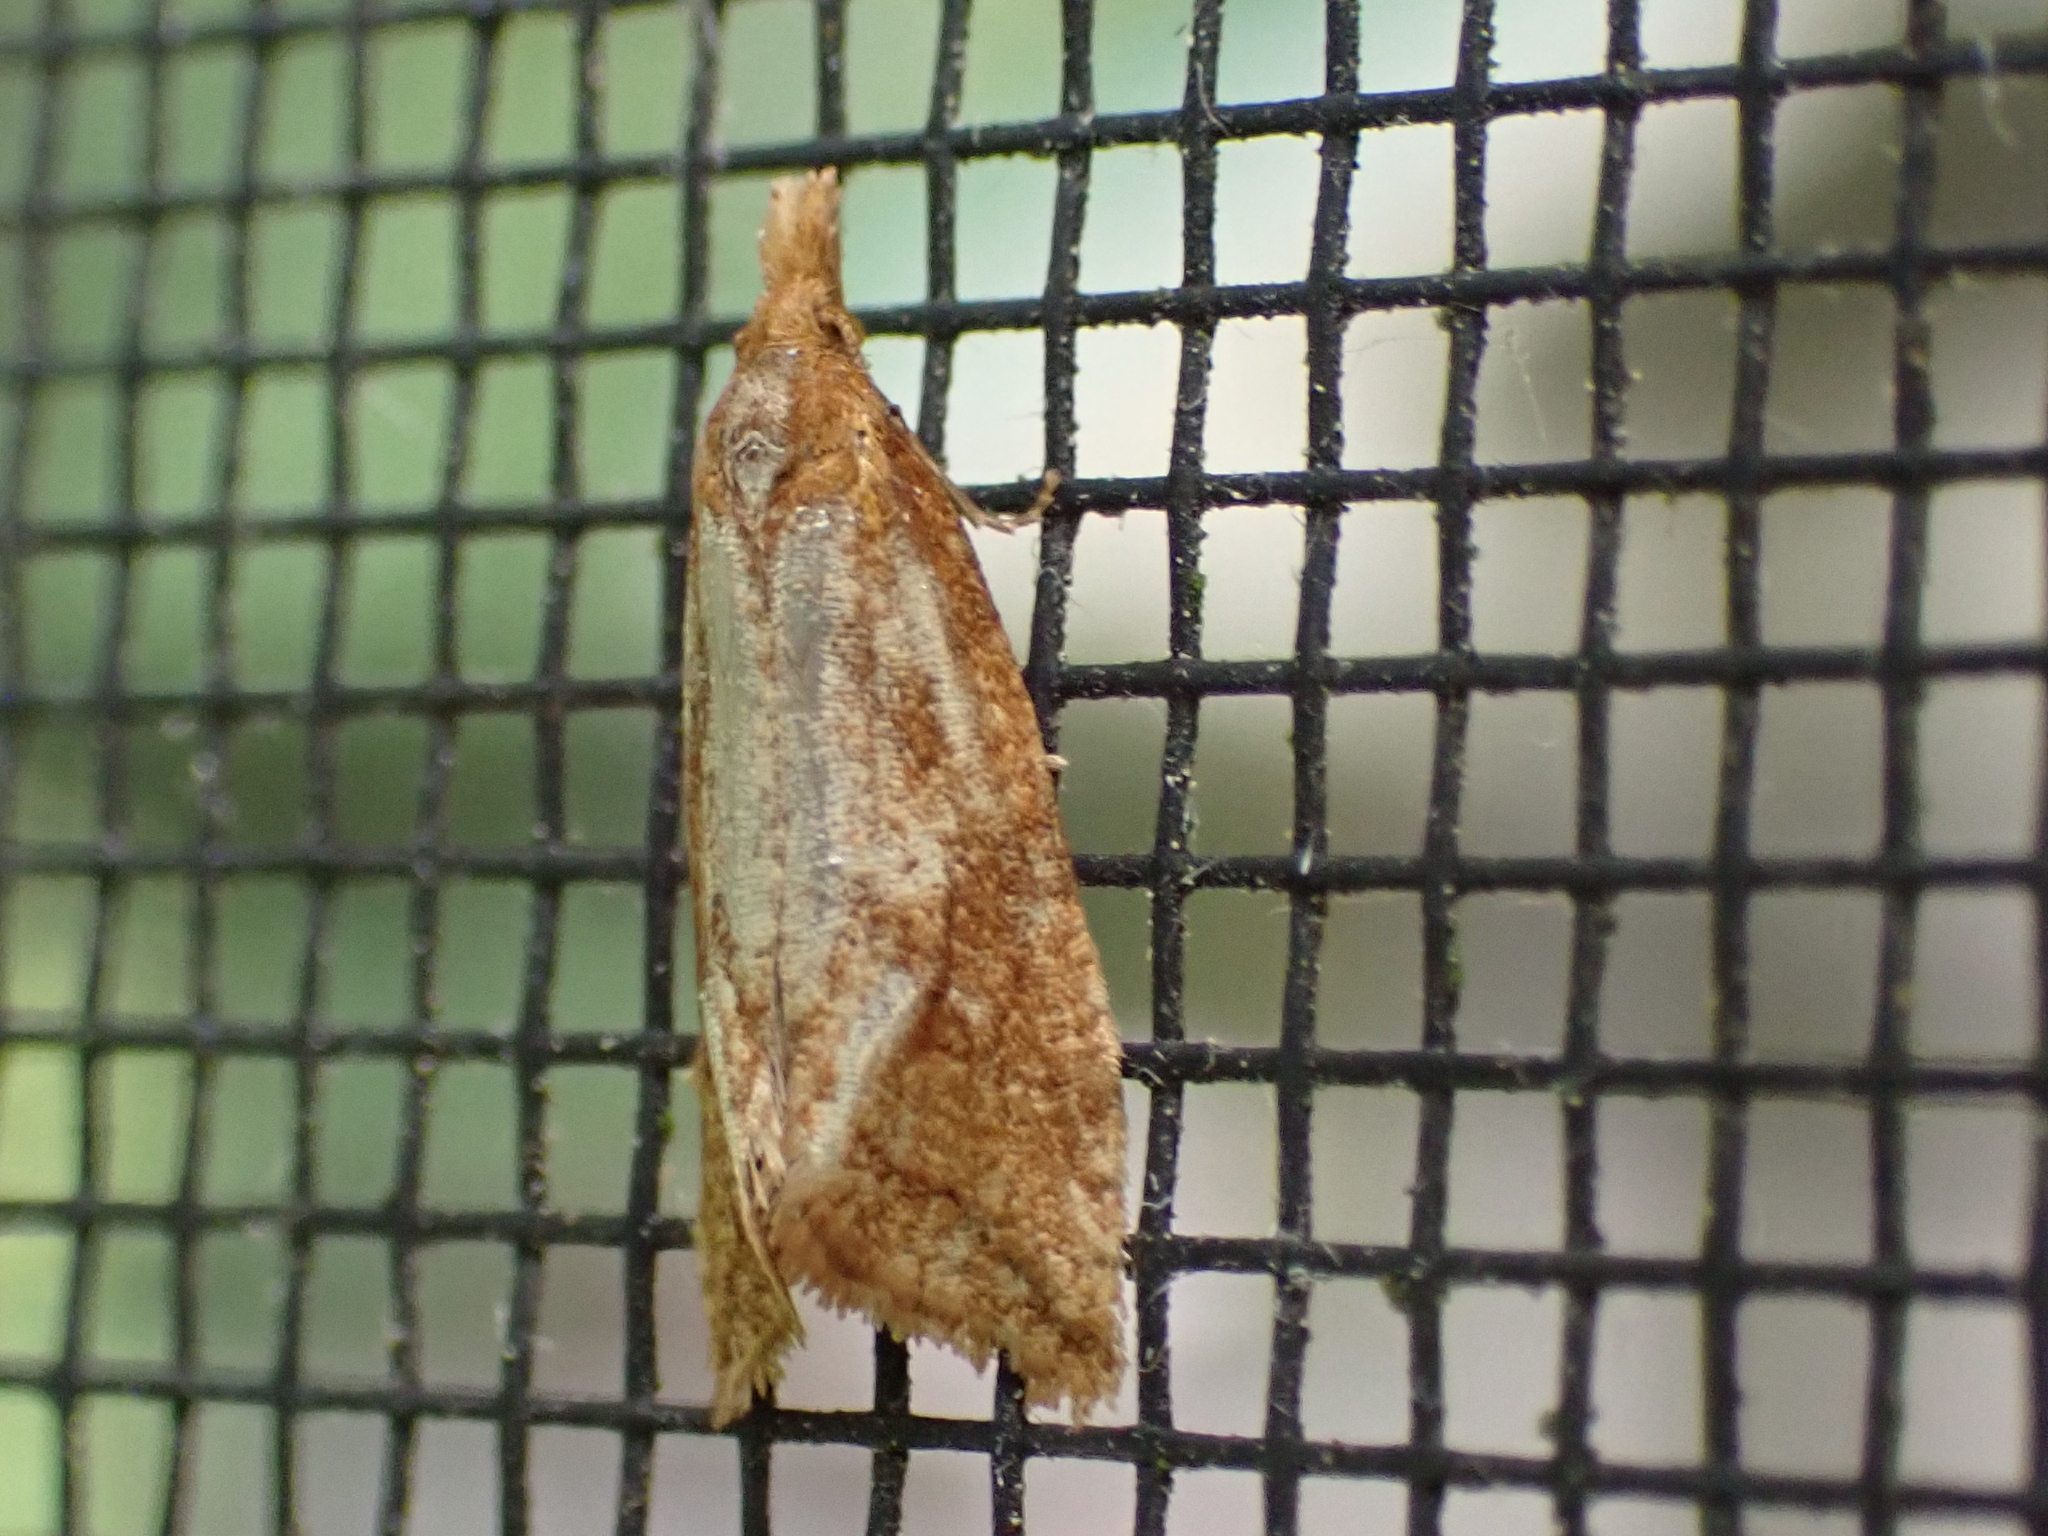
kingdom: Animalia
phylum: Arthropoda
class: Insecta
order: Lepidoptera
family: Tortricidae
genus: Aethes
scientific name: Aethes biscana
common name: Reddish aethes
